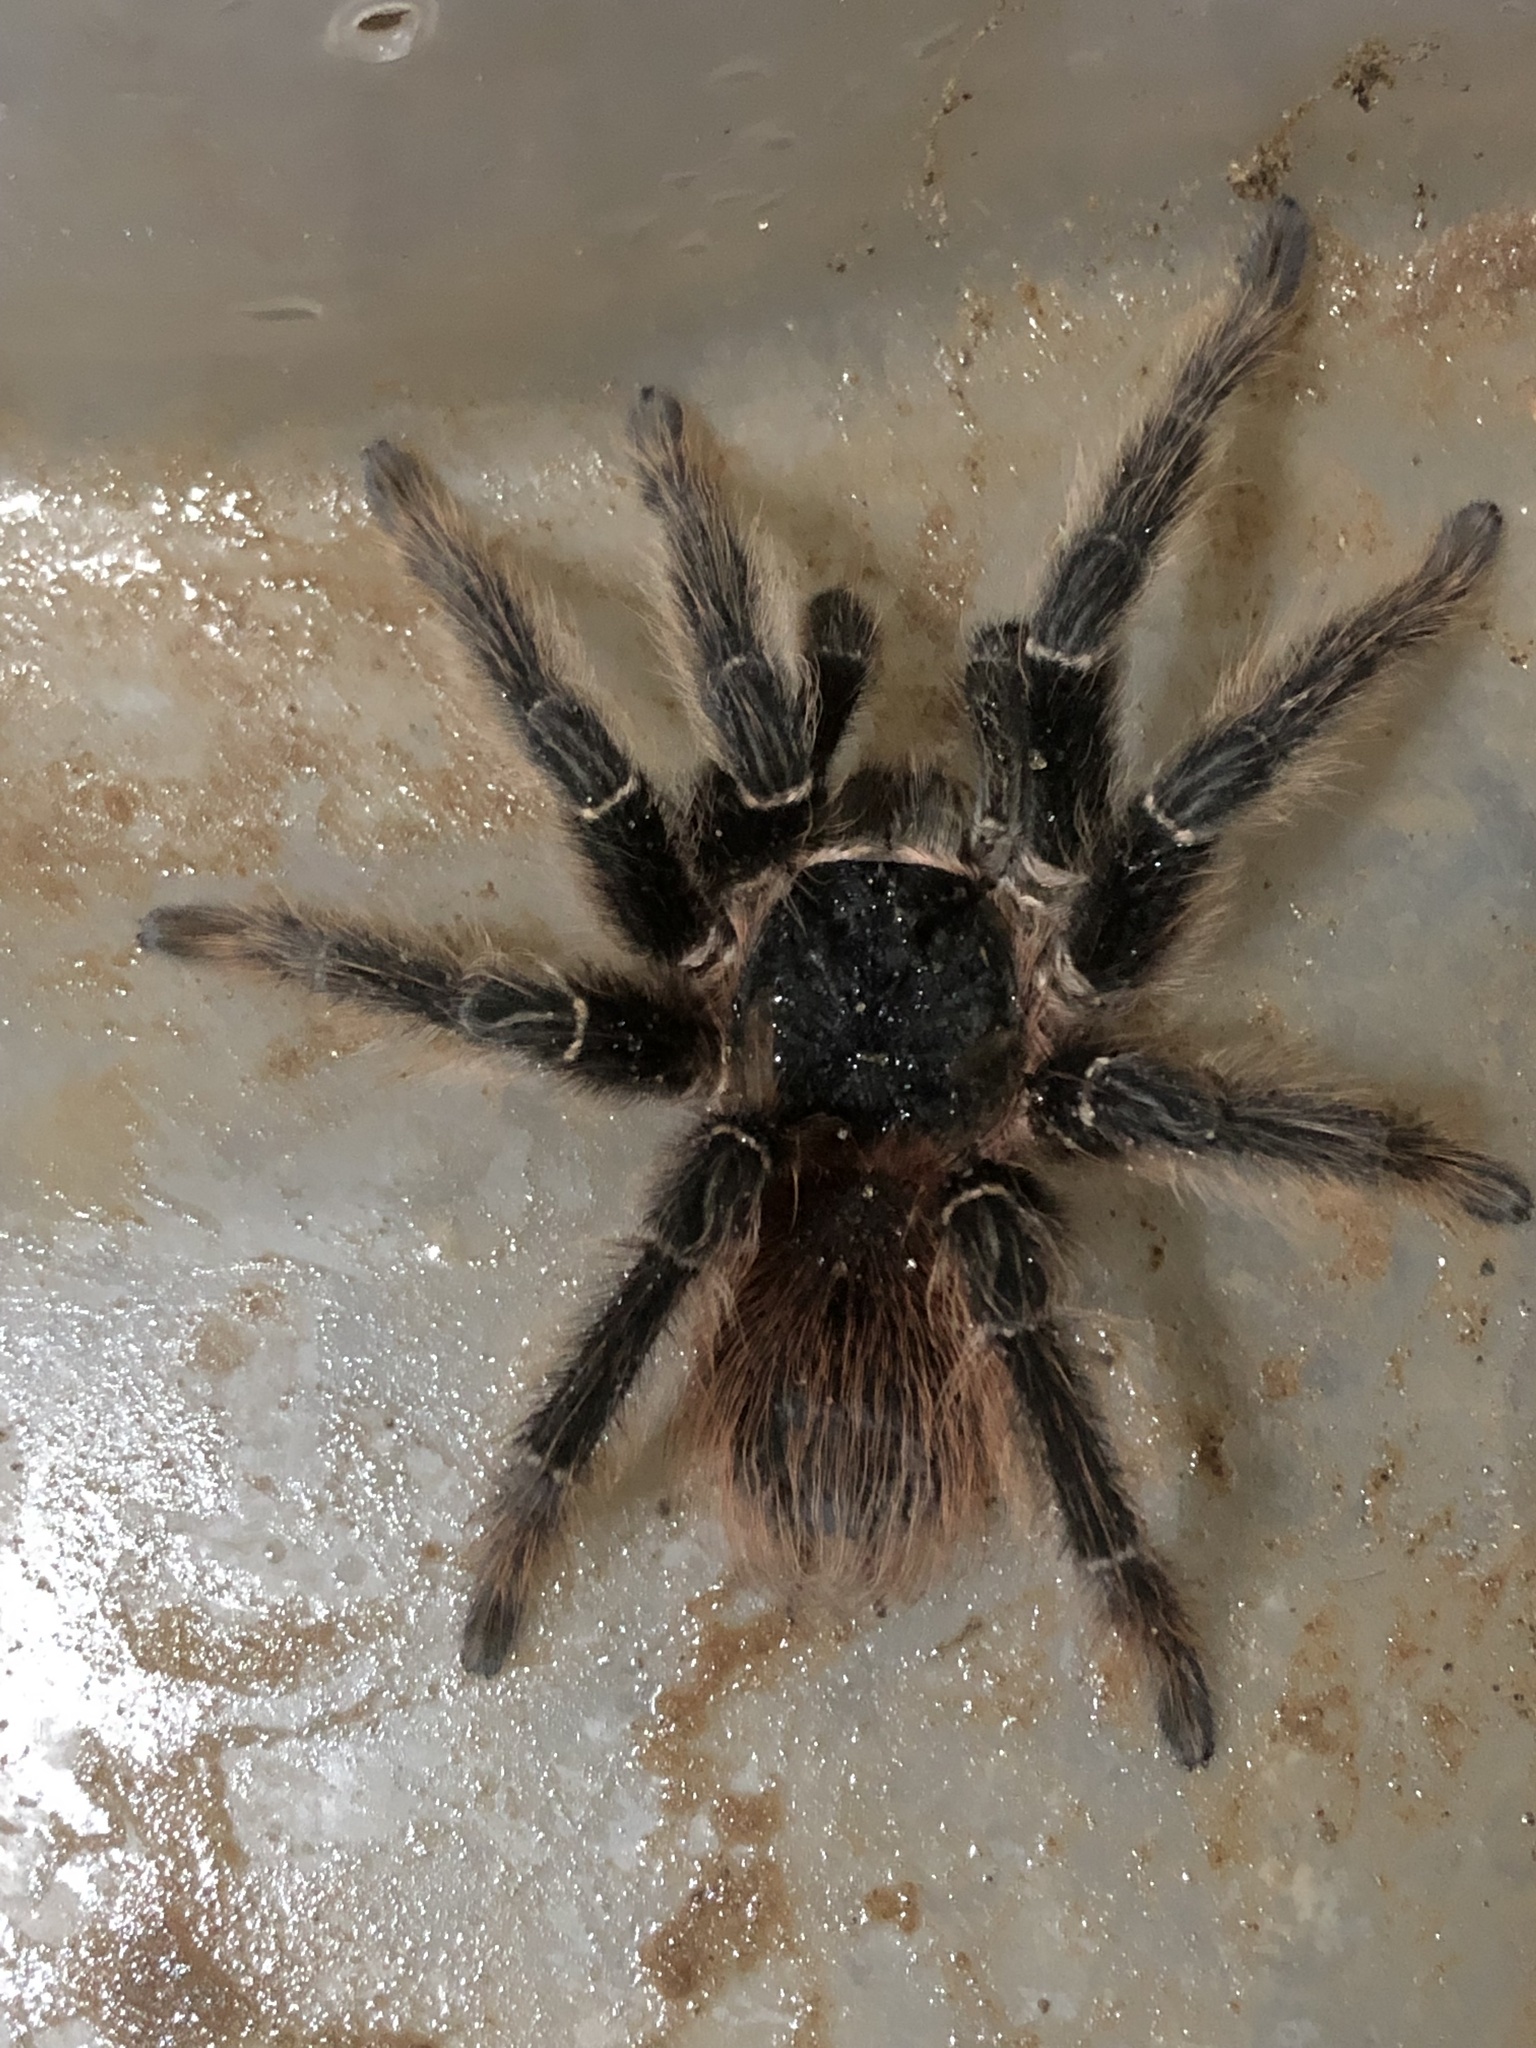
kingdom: Animalia
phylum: Arthropoda
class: Arachnida
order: Araneae
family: Theraphosidae
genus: Lasiodora
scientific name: Lasiodora parahybana
